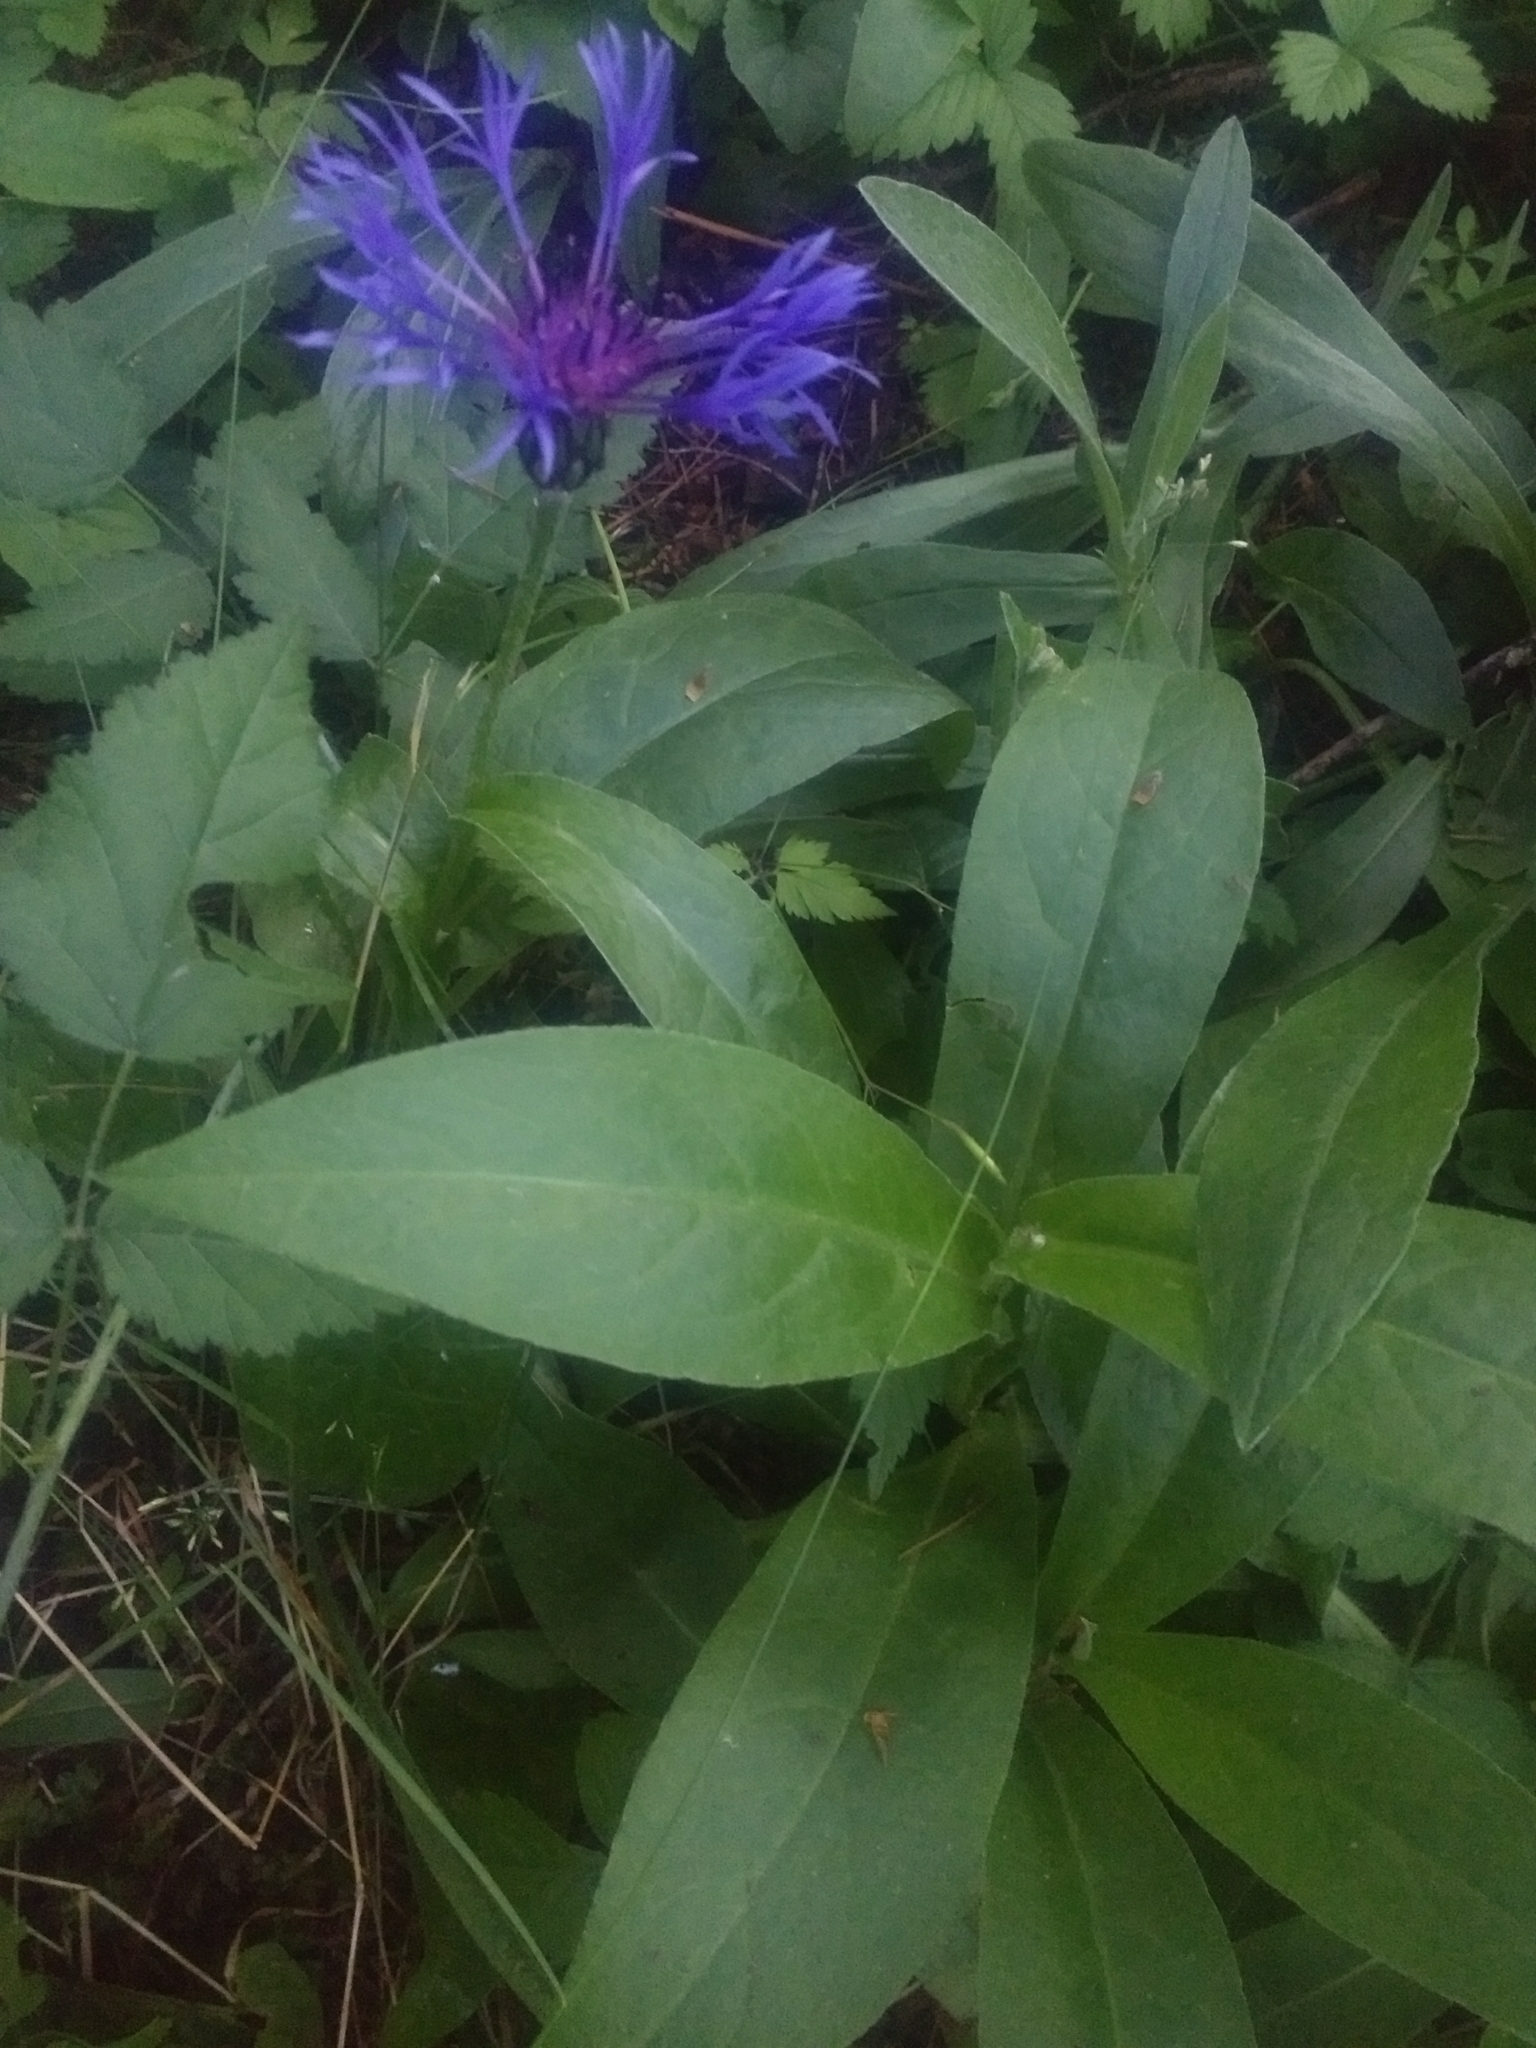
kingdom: Plantae
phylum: Tracheophyta
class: Magnoliopsida
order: Asterales
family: Asteraceae
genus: Centaurea
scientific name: Centaurea montana
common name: Perennial cornflower
